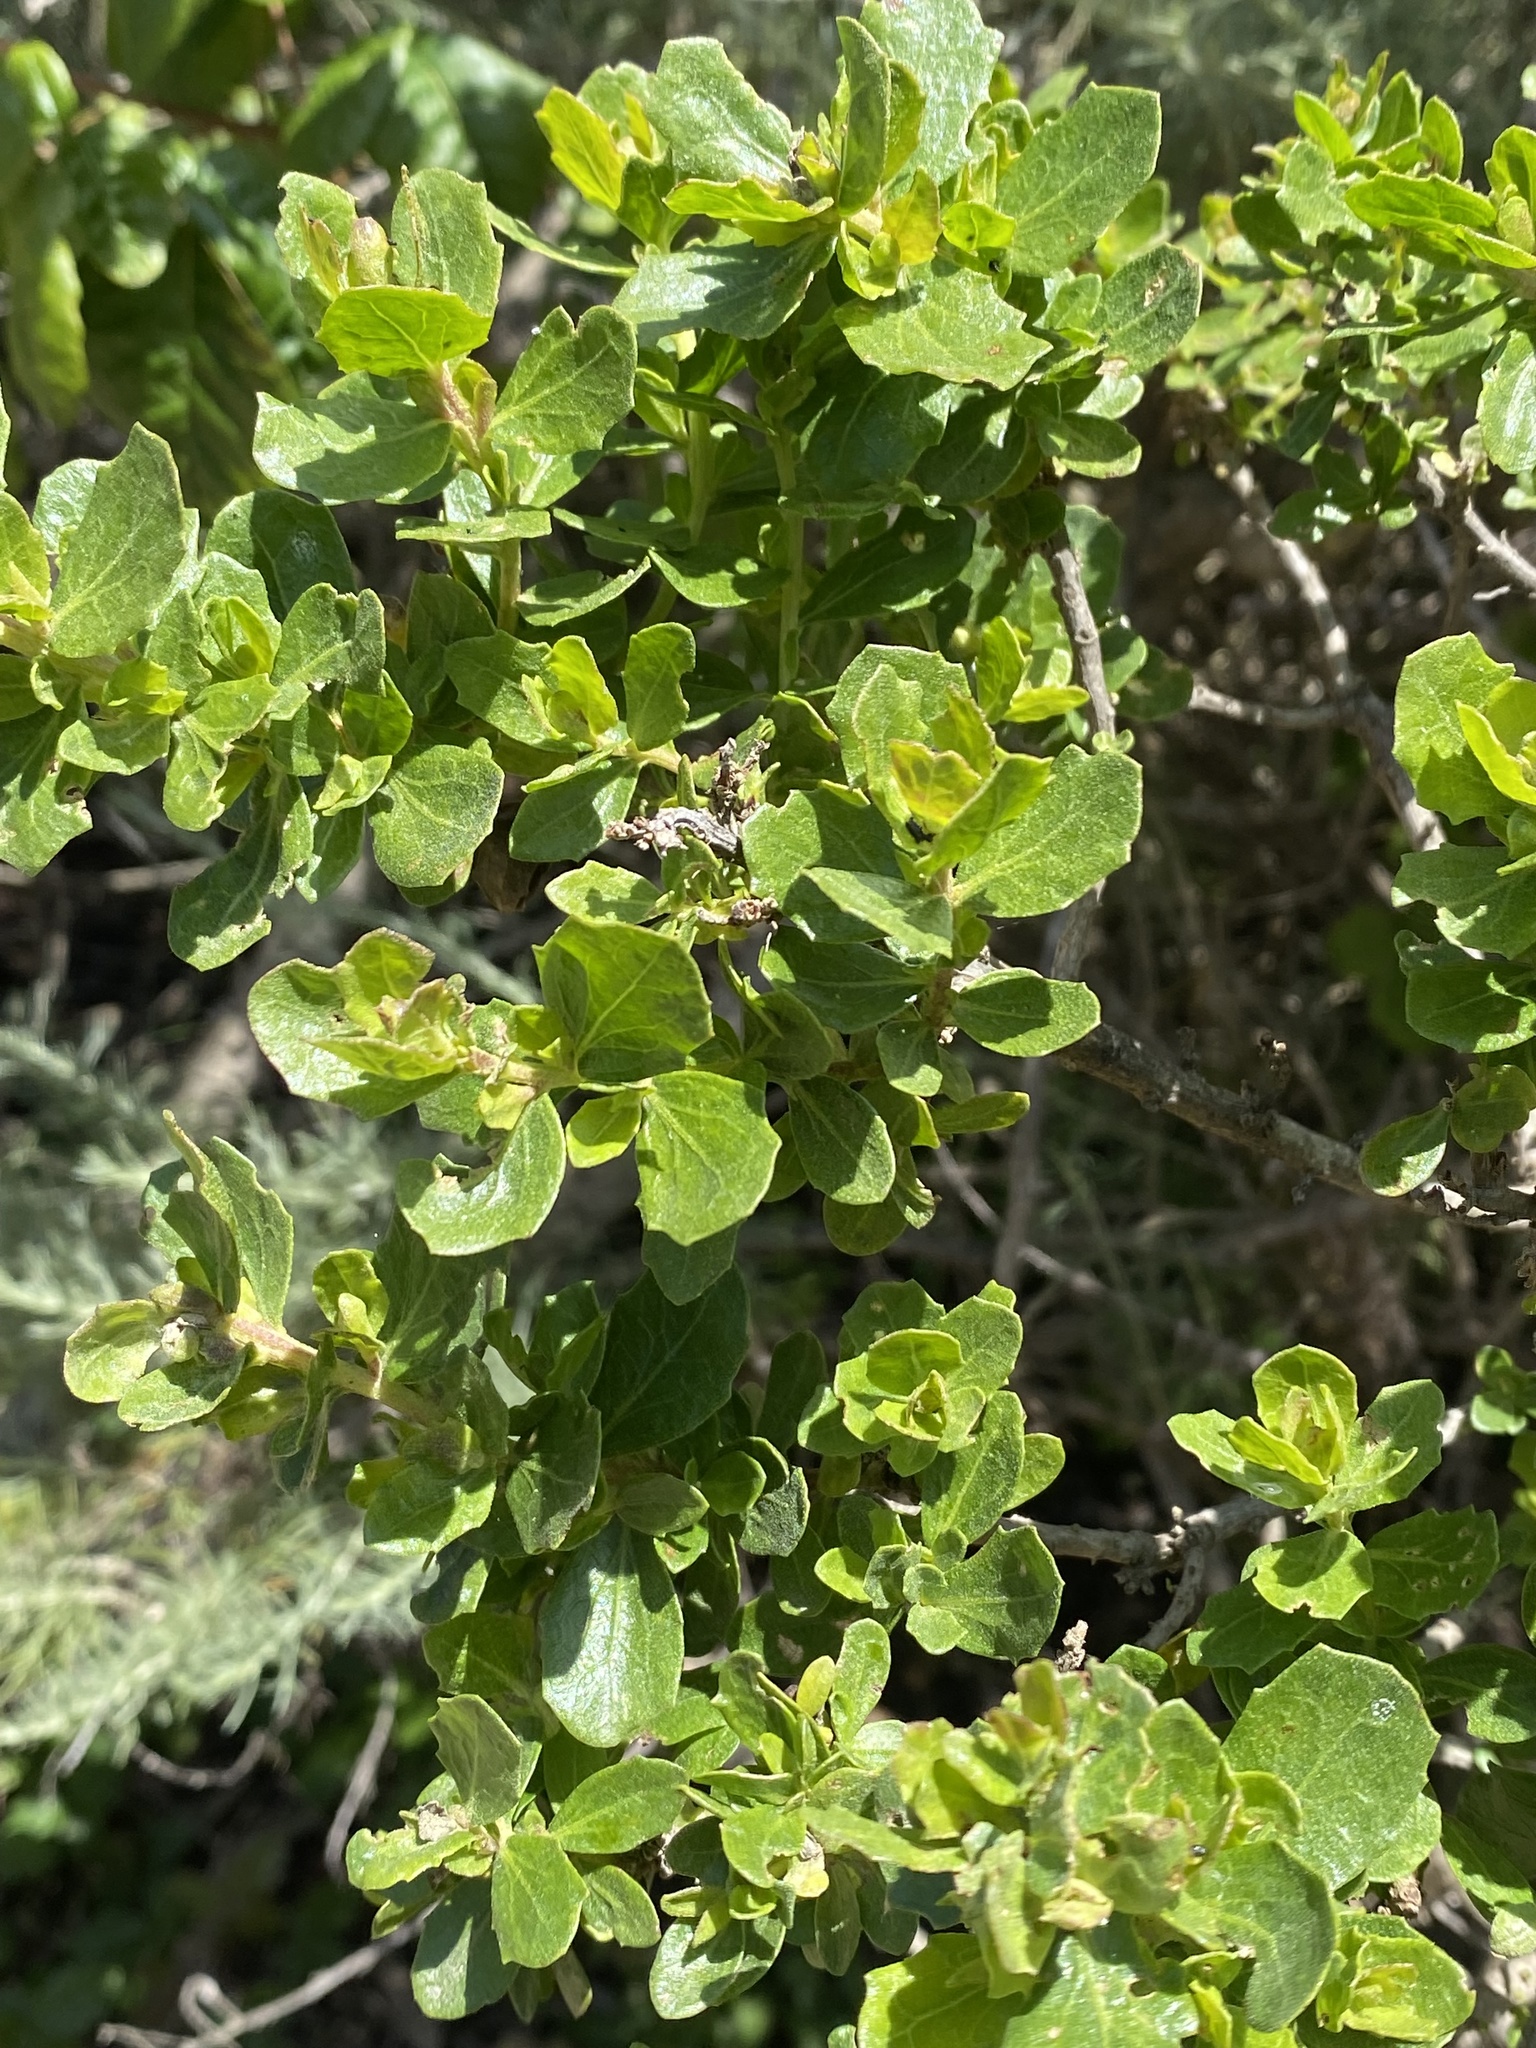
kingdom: Plantae
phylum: Tracheophyta
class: Magnoliopsida
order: Asterales
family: Asteraceae
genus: Baccharis
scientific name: Baccharis pilularis
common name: Coyotebrush
